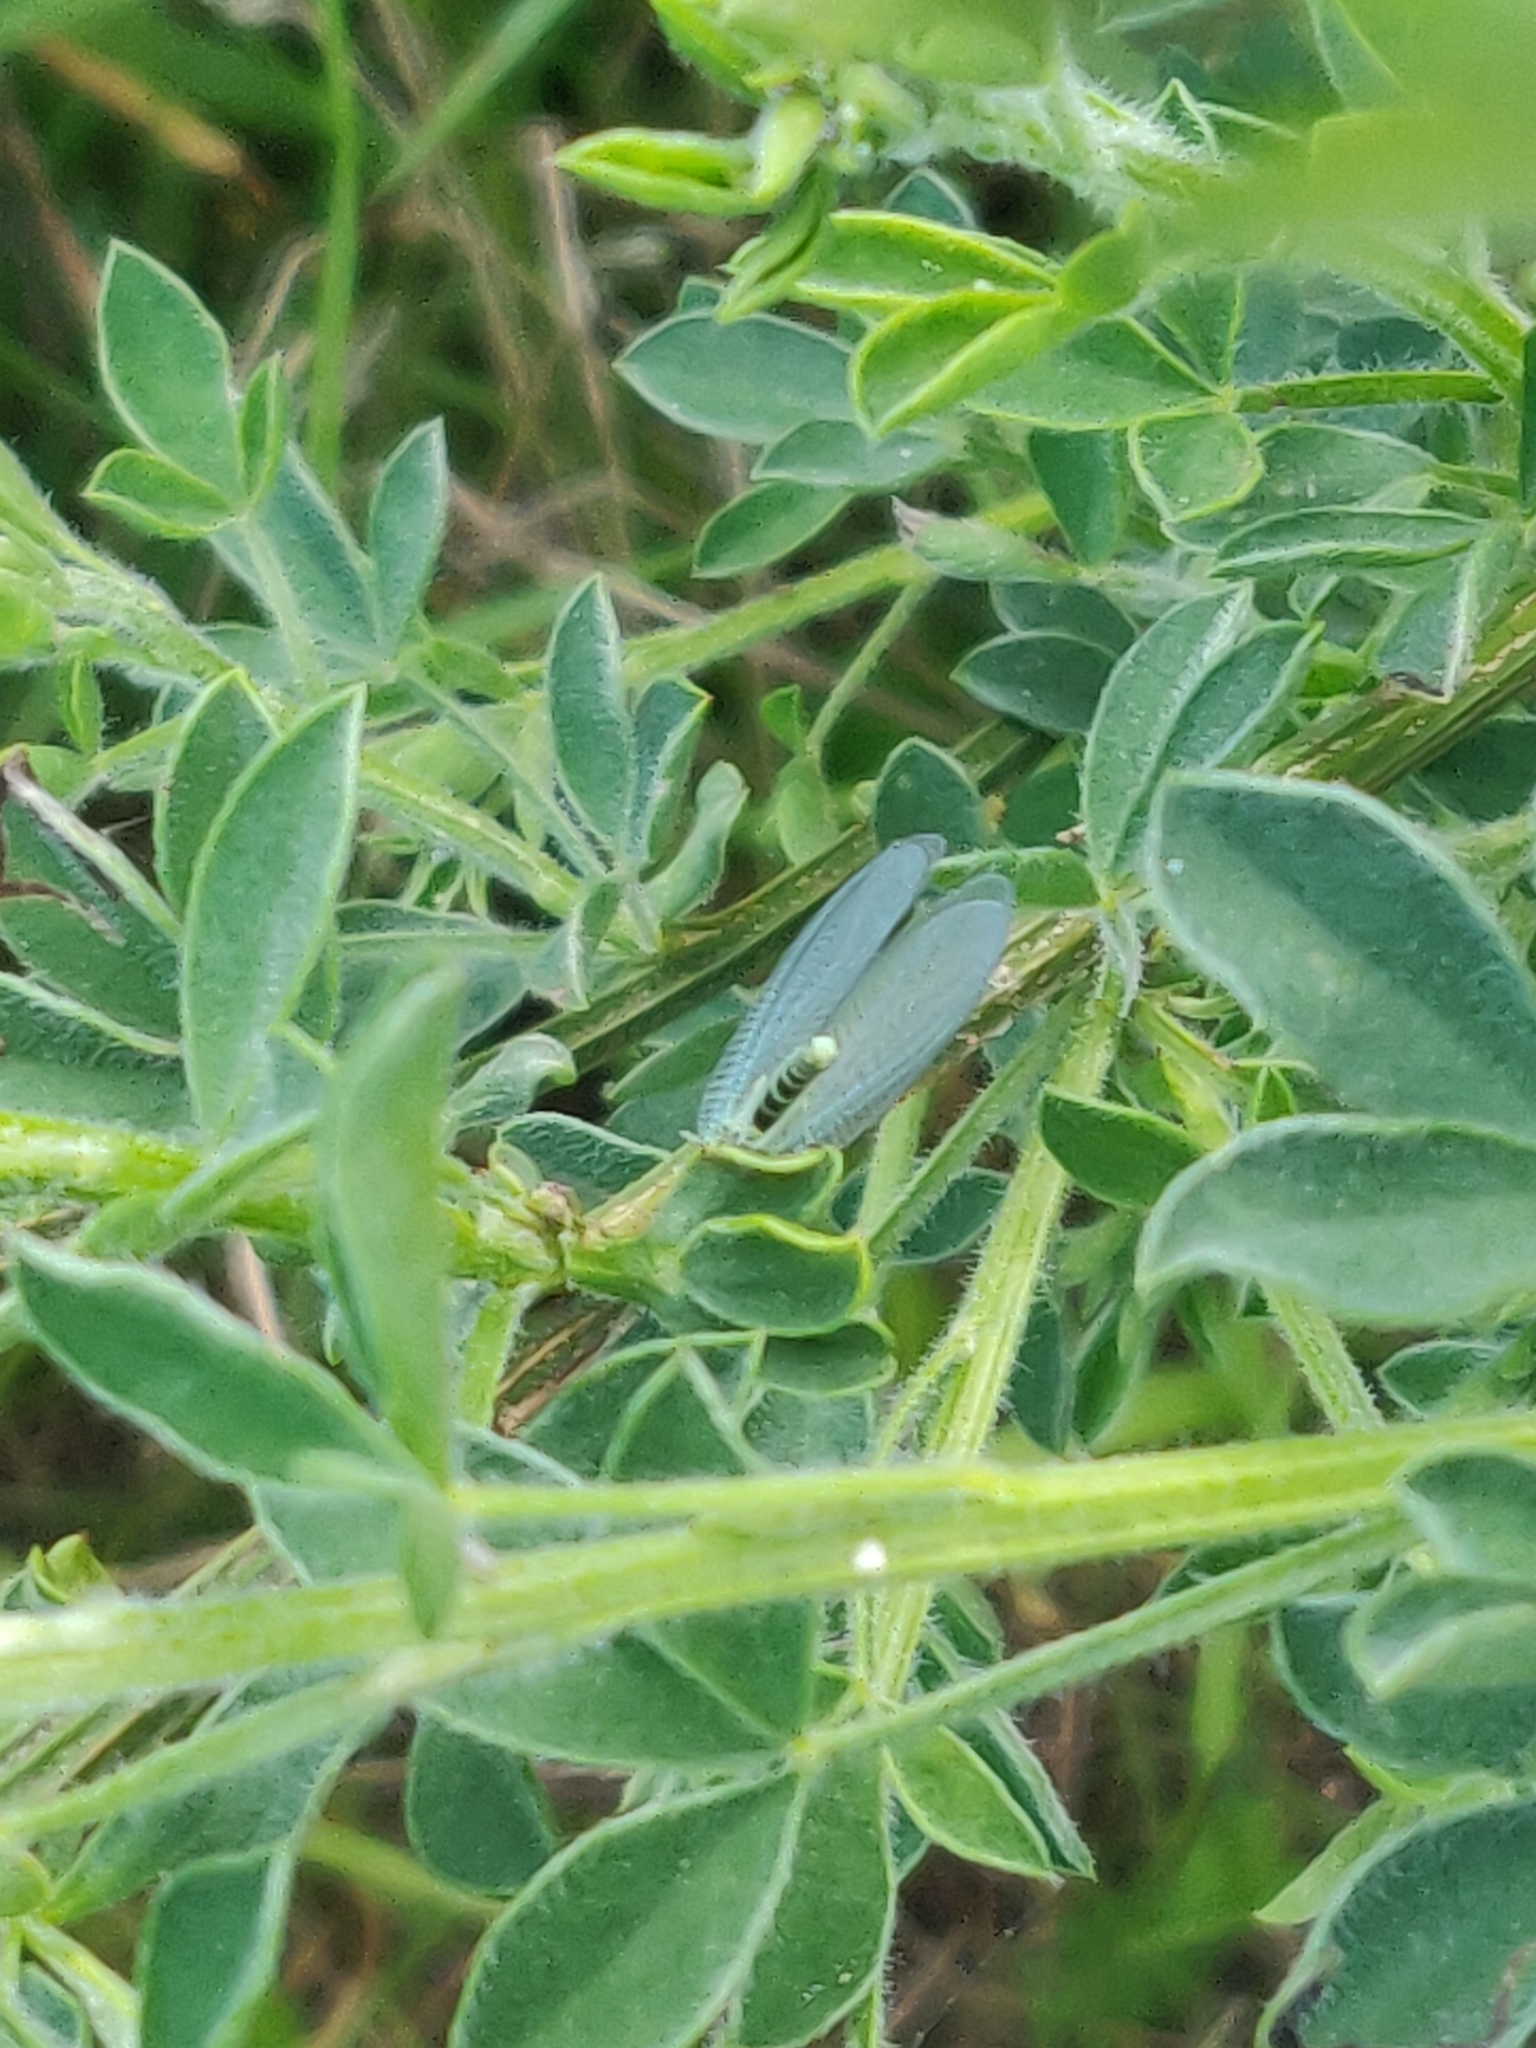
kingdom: Plantae
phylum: Tracheophyta
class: Magnoliopsida
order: Fabales
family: Fabaceae
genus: Cytisus
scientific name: Cytisus scoparius
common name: Scotch broom
